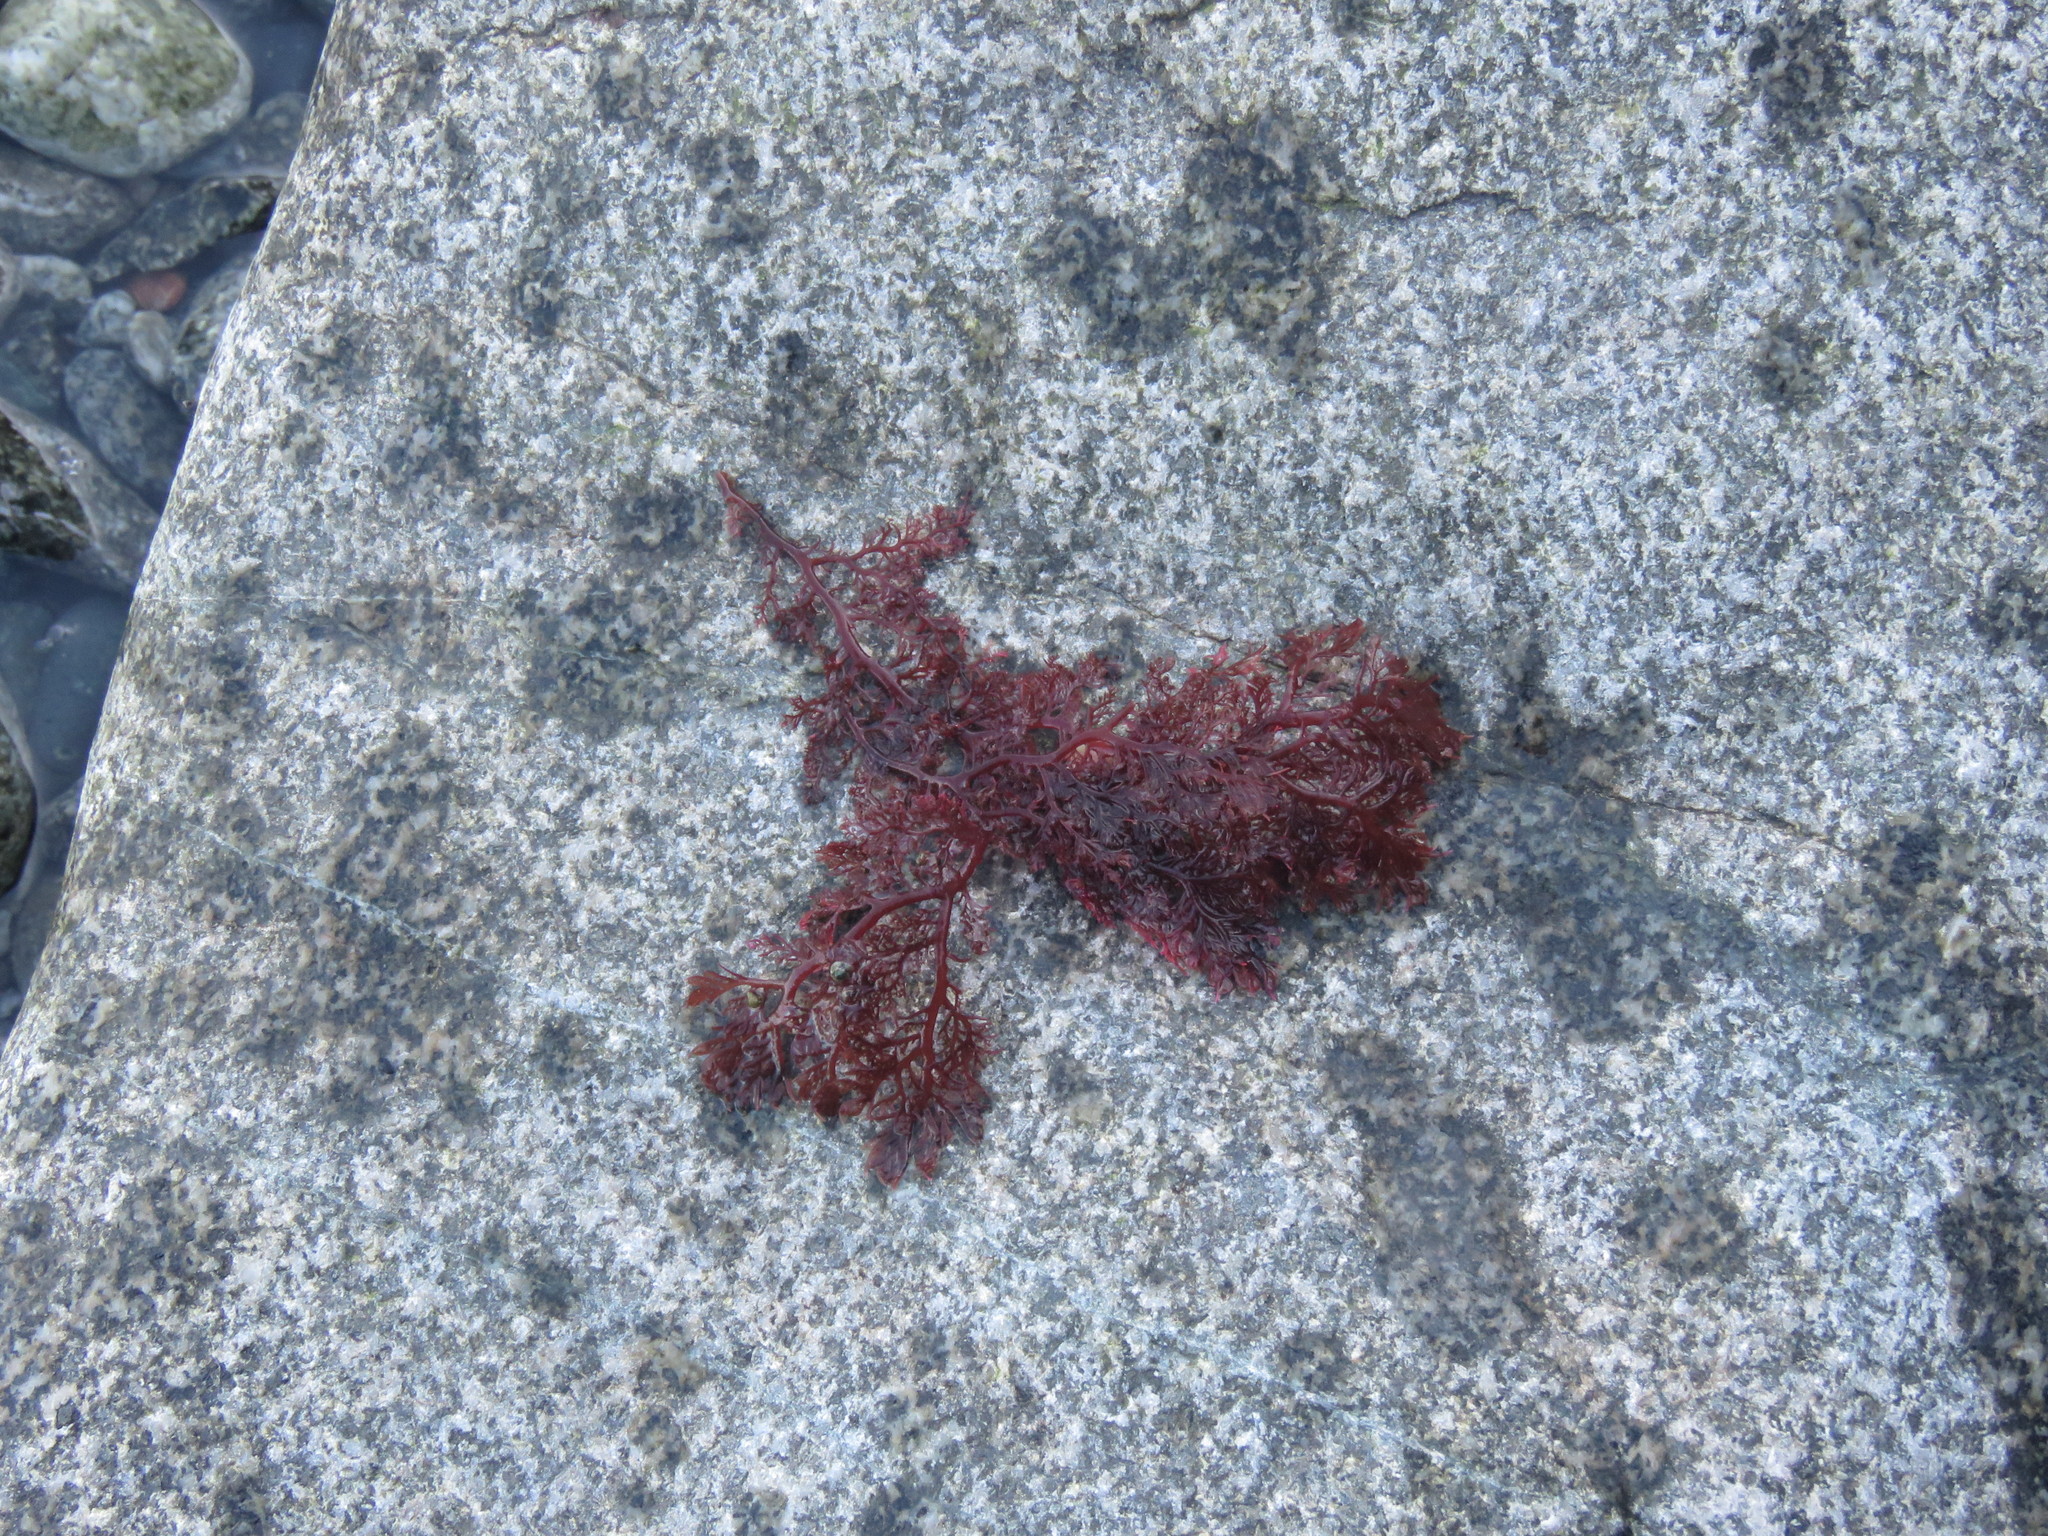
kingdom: Plantae
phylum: Rhodophyta
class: Florideophyceae
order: Plocamiales
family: Plocamiaceae
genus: Plocamium
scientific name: Plocamium cartilagineum
